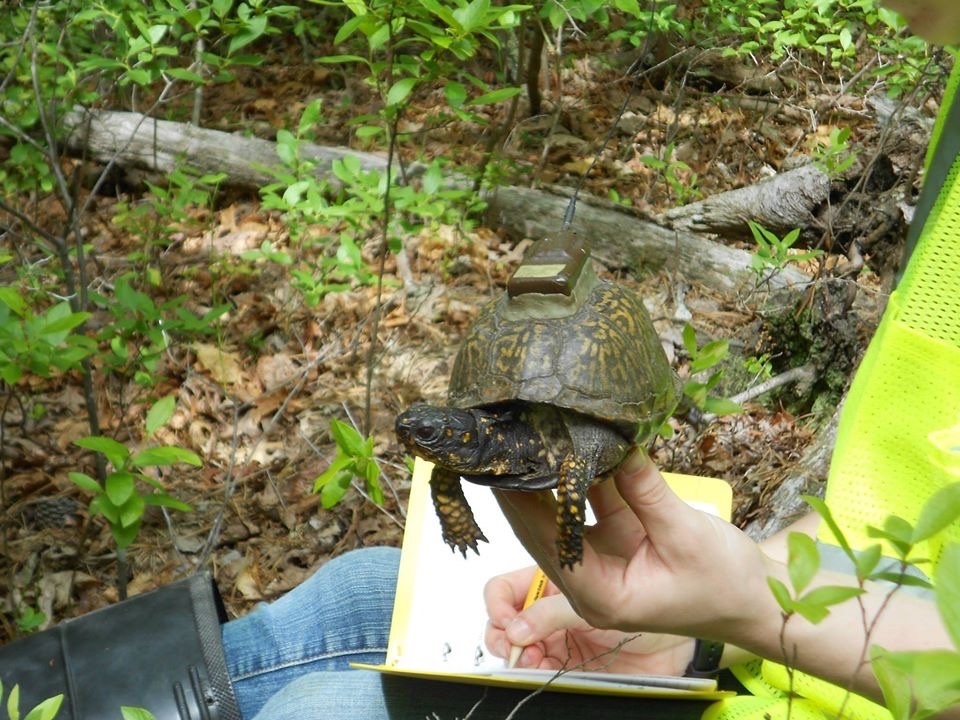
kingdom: Animalia
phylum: Chordata
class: Testudines
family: Emydidae
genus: Terrapene
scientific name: Terrapene carolina
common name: Common box turtle
